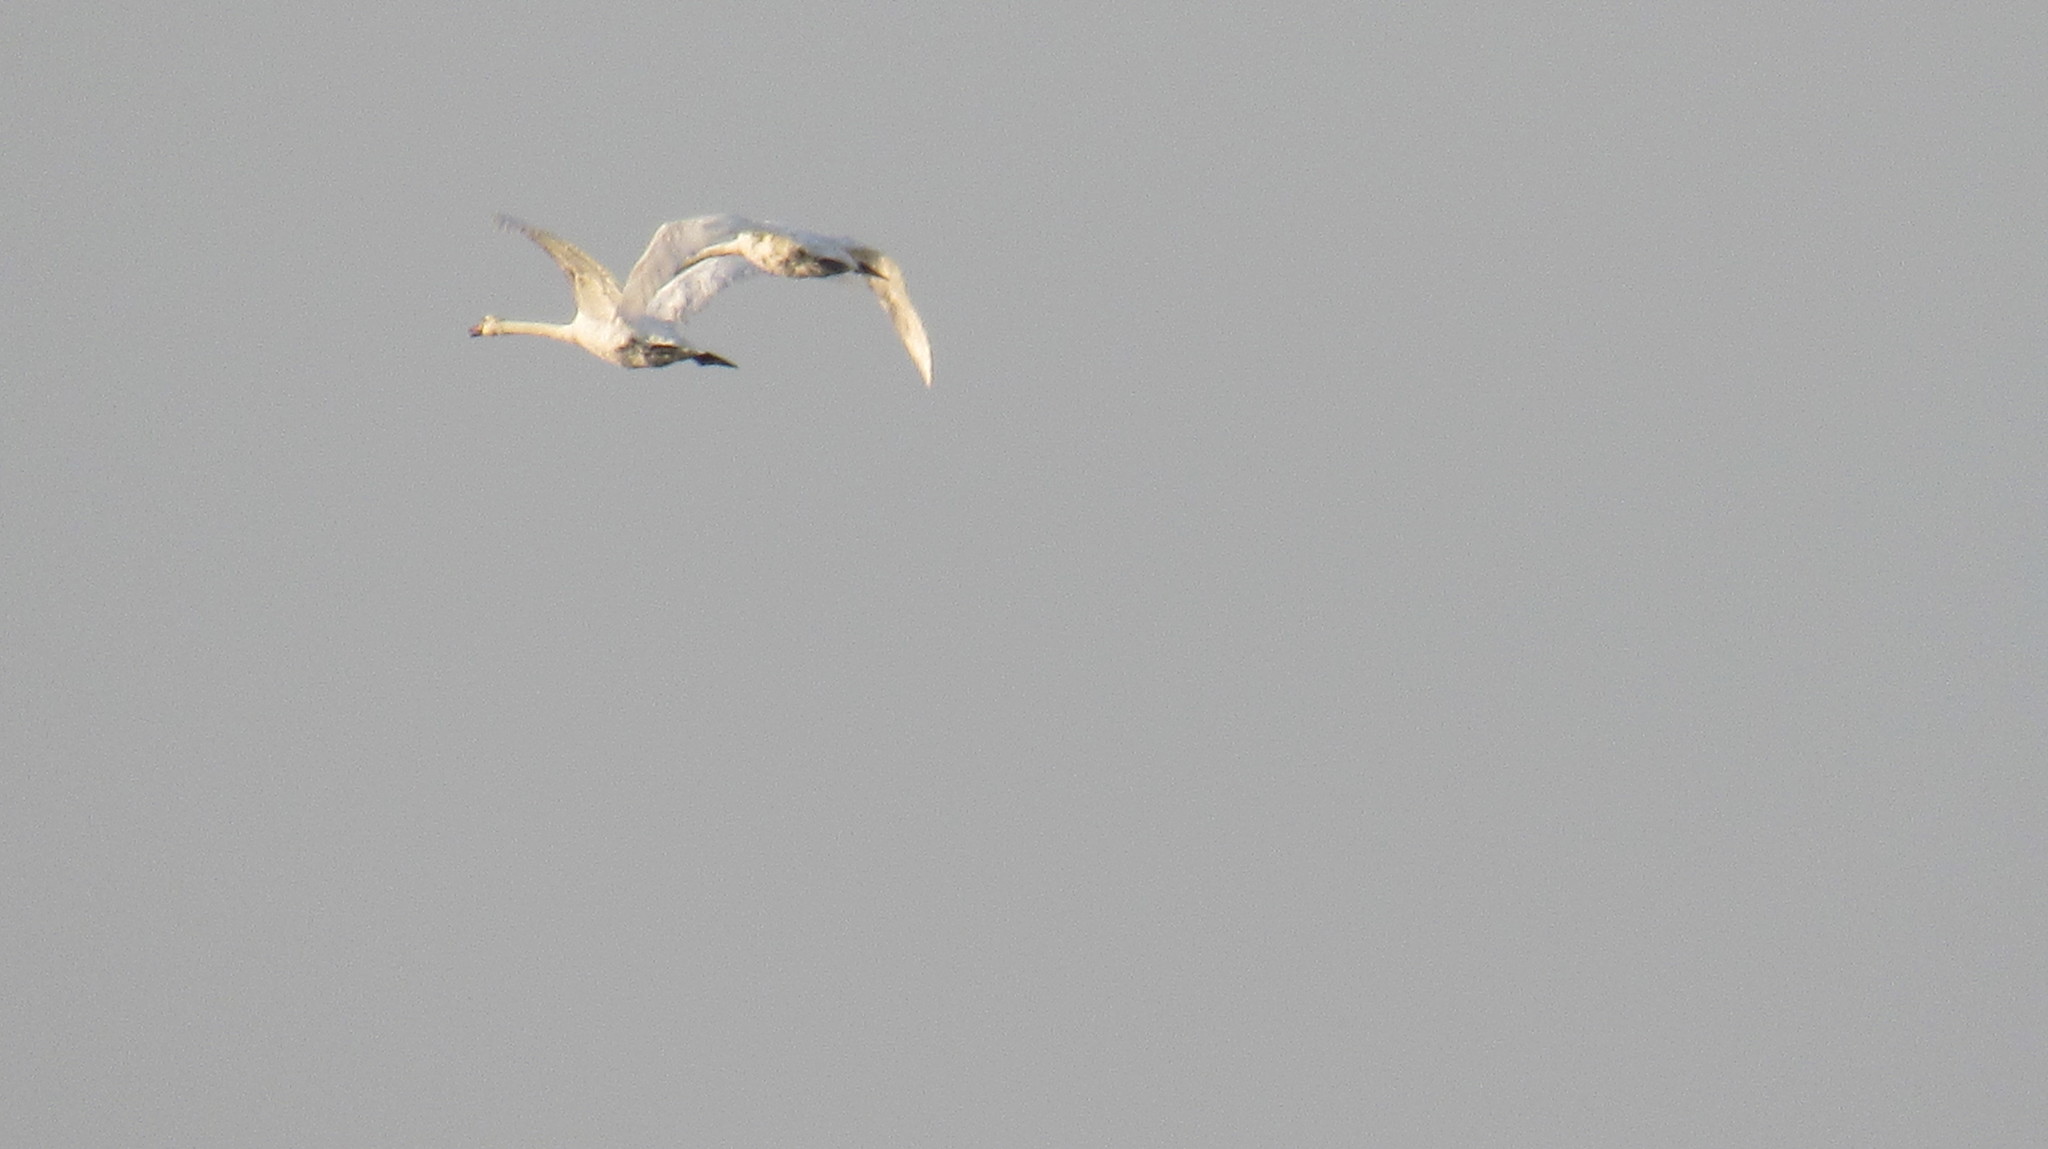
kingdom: Animalia
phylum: Chordata
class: Aves
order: Anseriformes
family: Anatidae
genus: Cygnus
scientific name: Cygnus olor
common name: Mute swan
